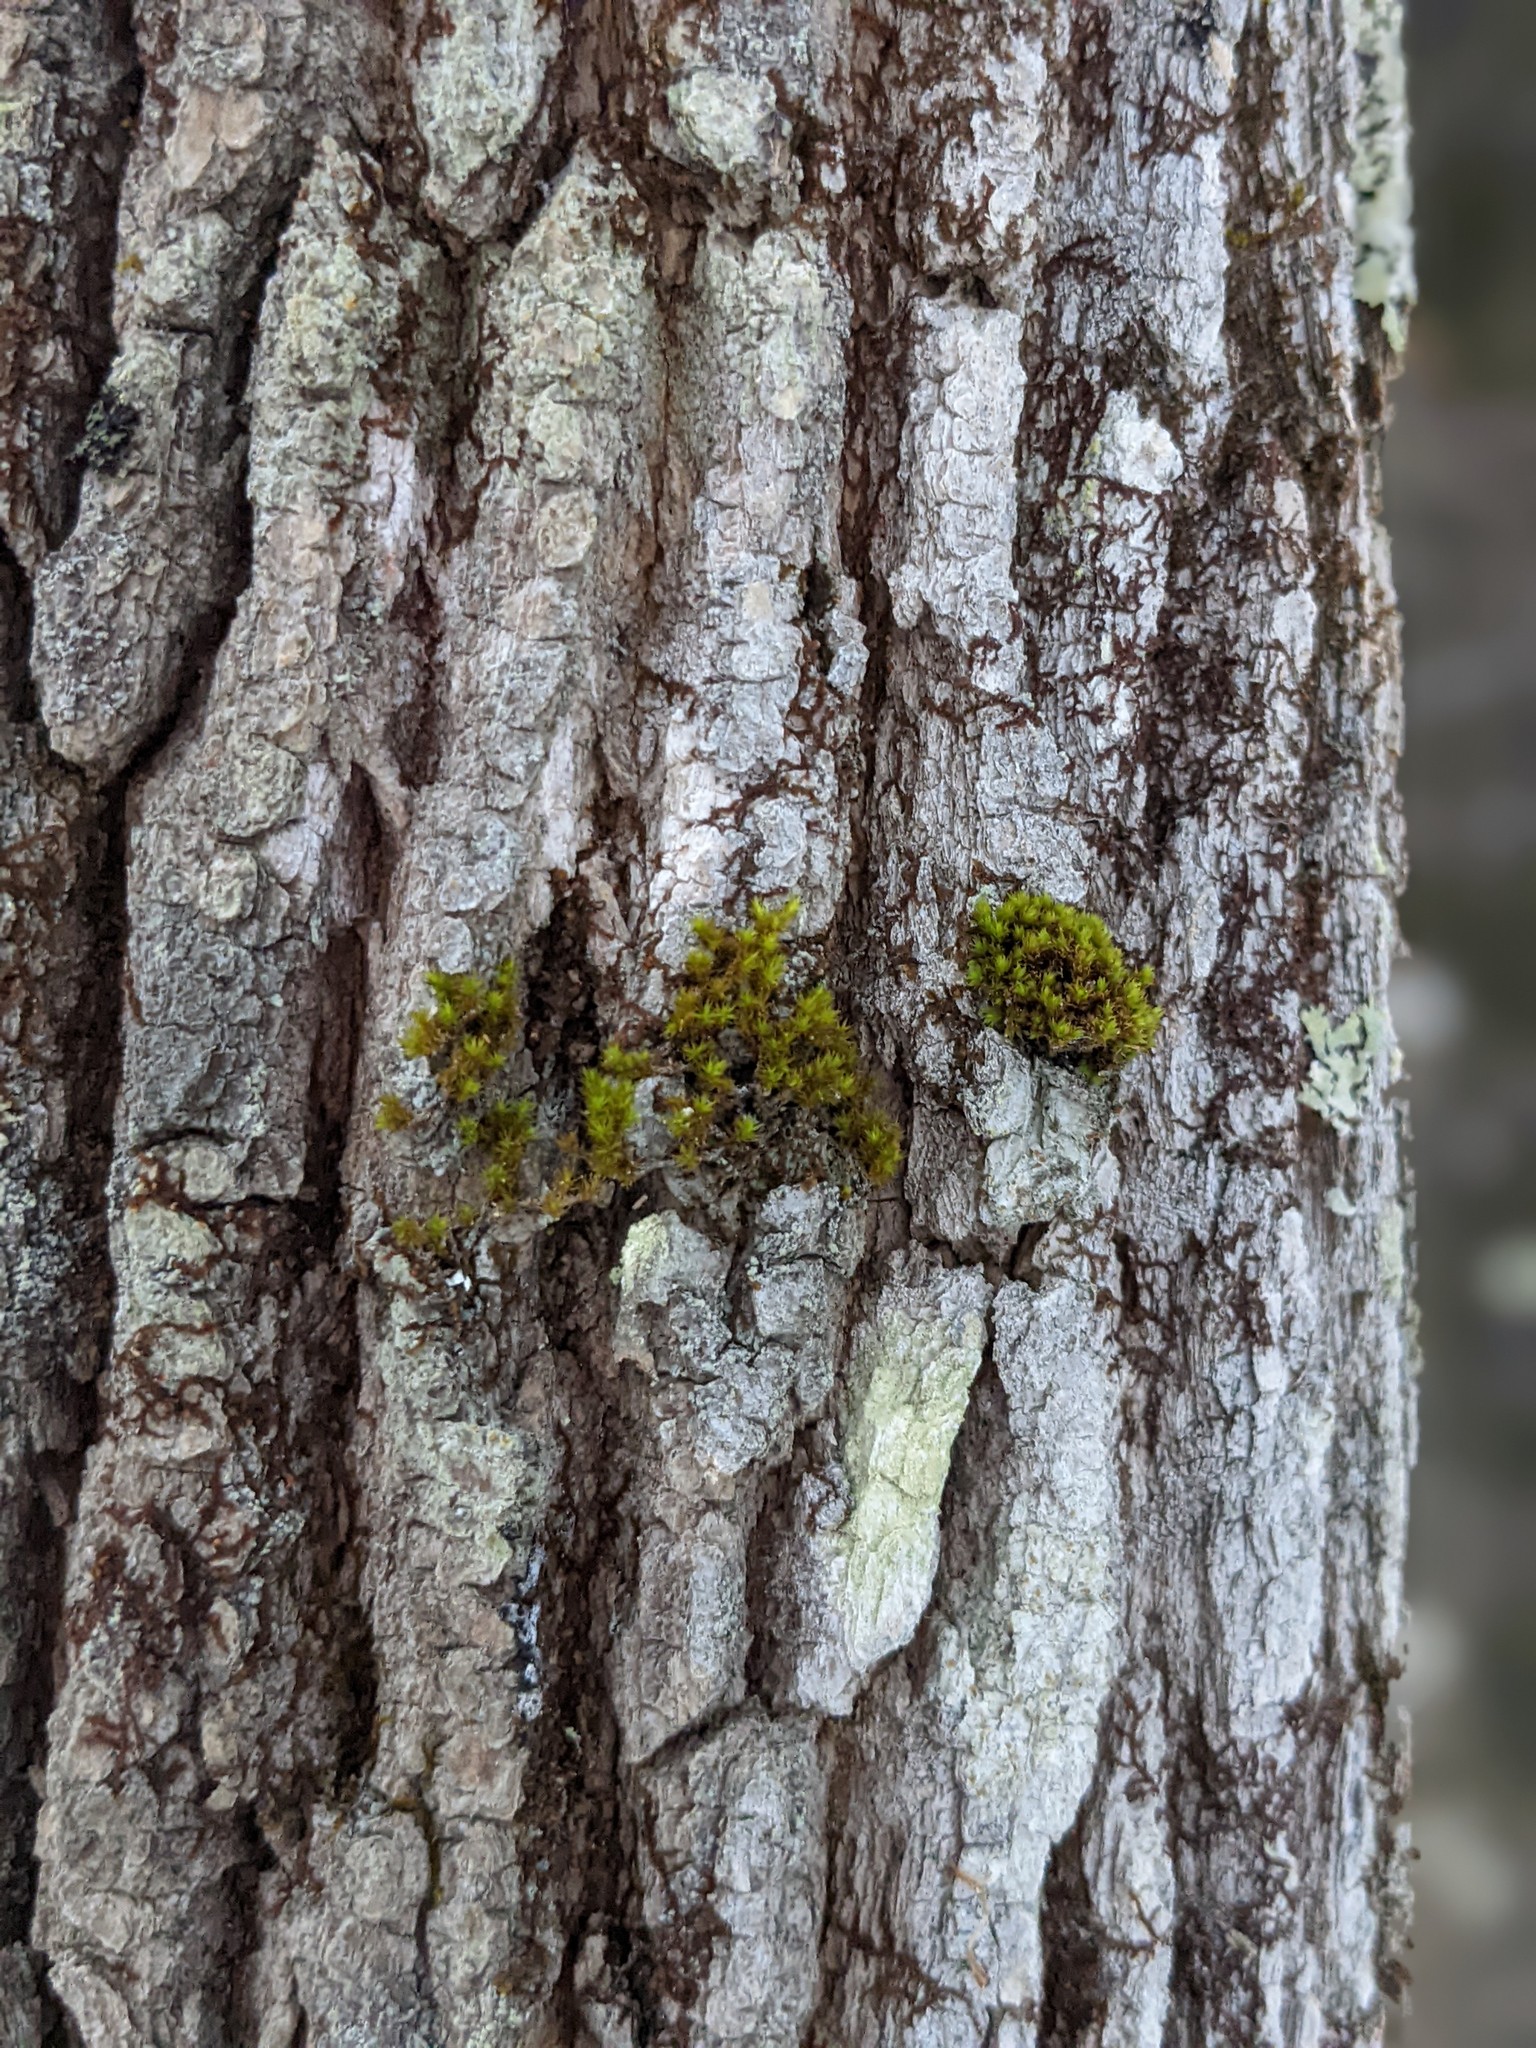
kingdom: Plantae
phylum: Bryophyta
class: Bryopsida
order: Orthotrichales
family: Orthotrichaceae
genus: Ulota
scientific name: Ulota crispa
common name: Crisped pincushion moss
